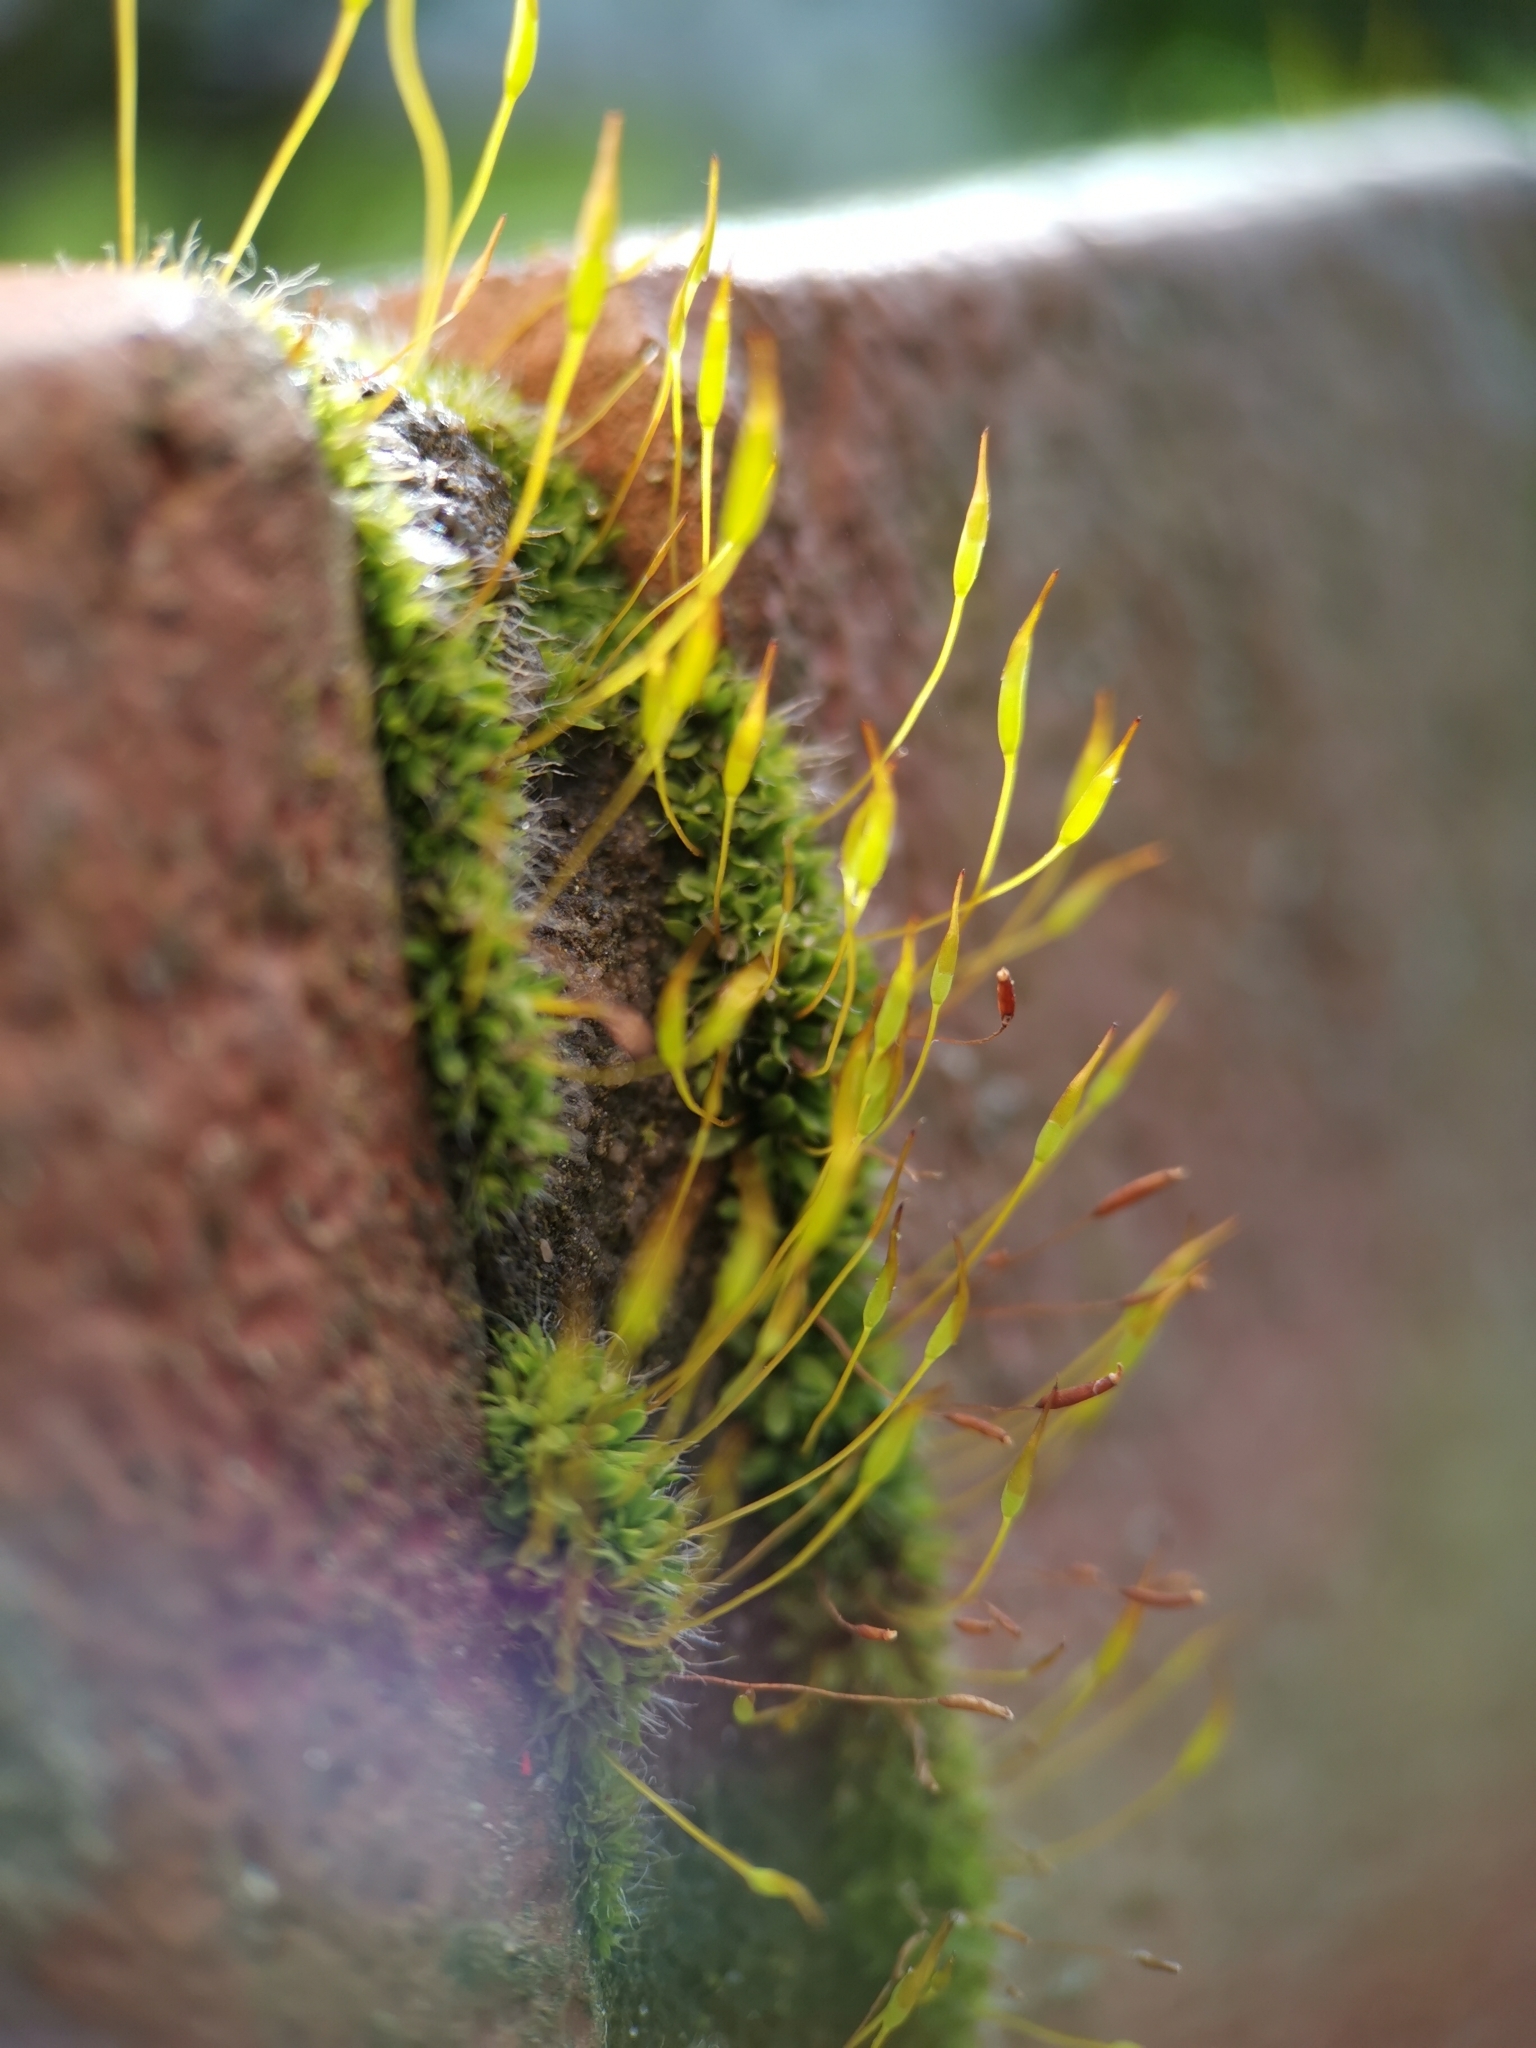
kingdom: Plantae
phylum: Bryophyta
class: Bryopsida
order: Pottiales
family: Pottiaceae
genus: Tortula
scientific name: Tortula muralis
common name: Wall screw-moss
